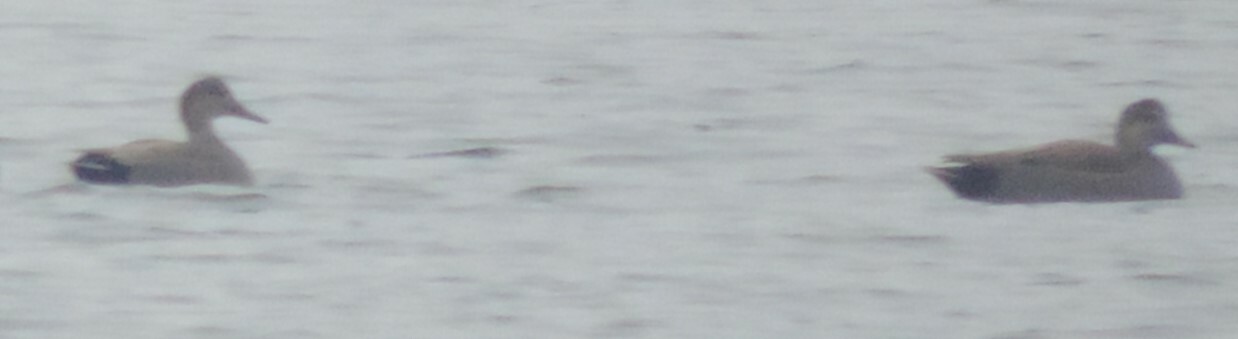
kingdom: Animalia
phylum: Chordata
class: Aves
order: Anseriformes
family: Anatidae
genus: Mareca
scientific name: Mareca strepera
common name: Gadwall
